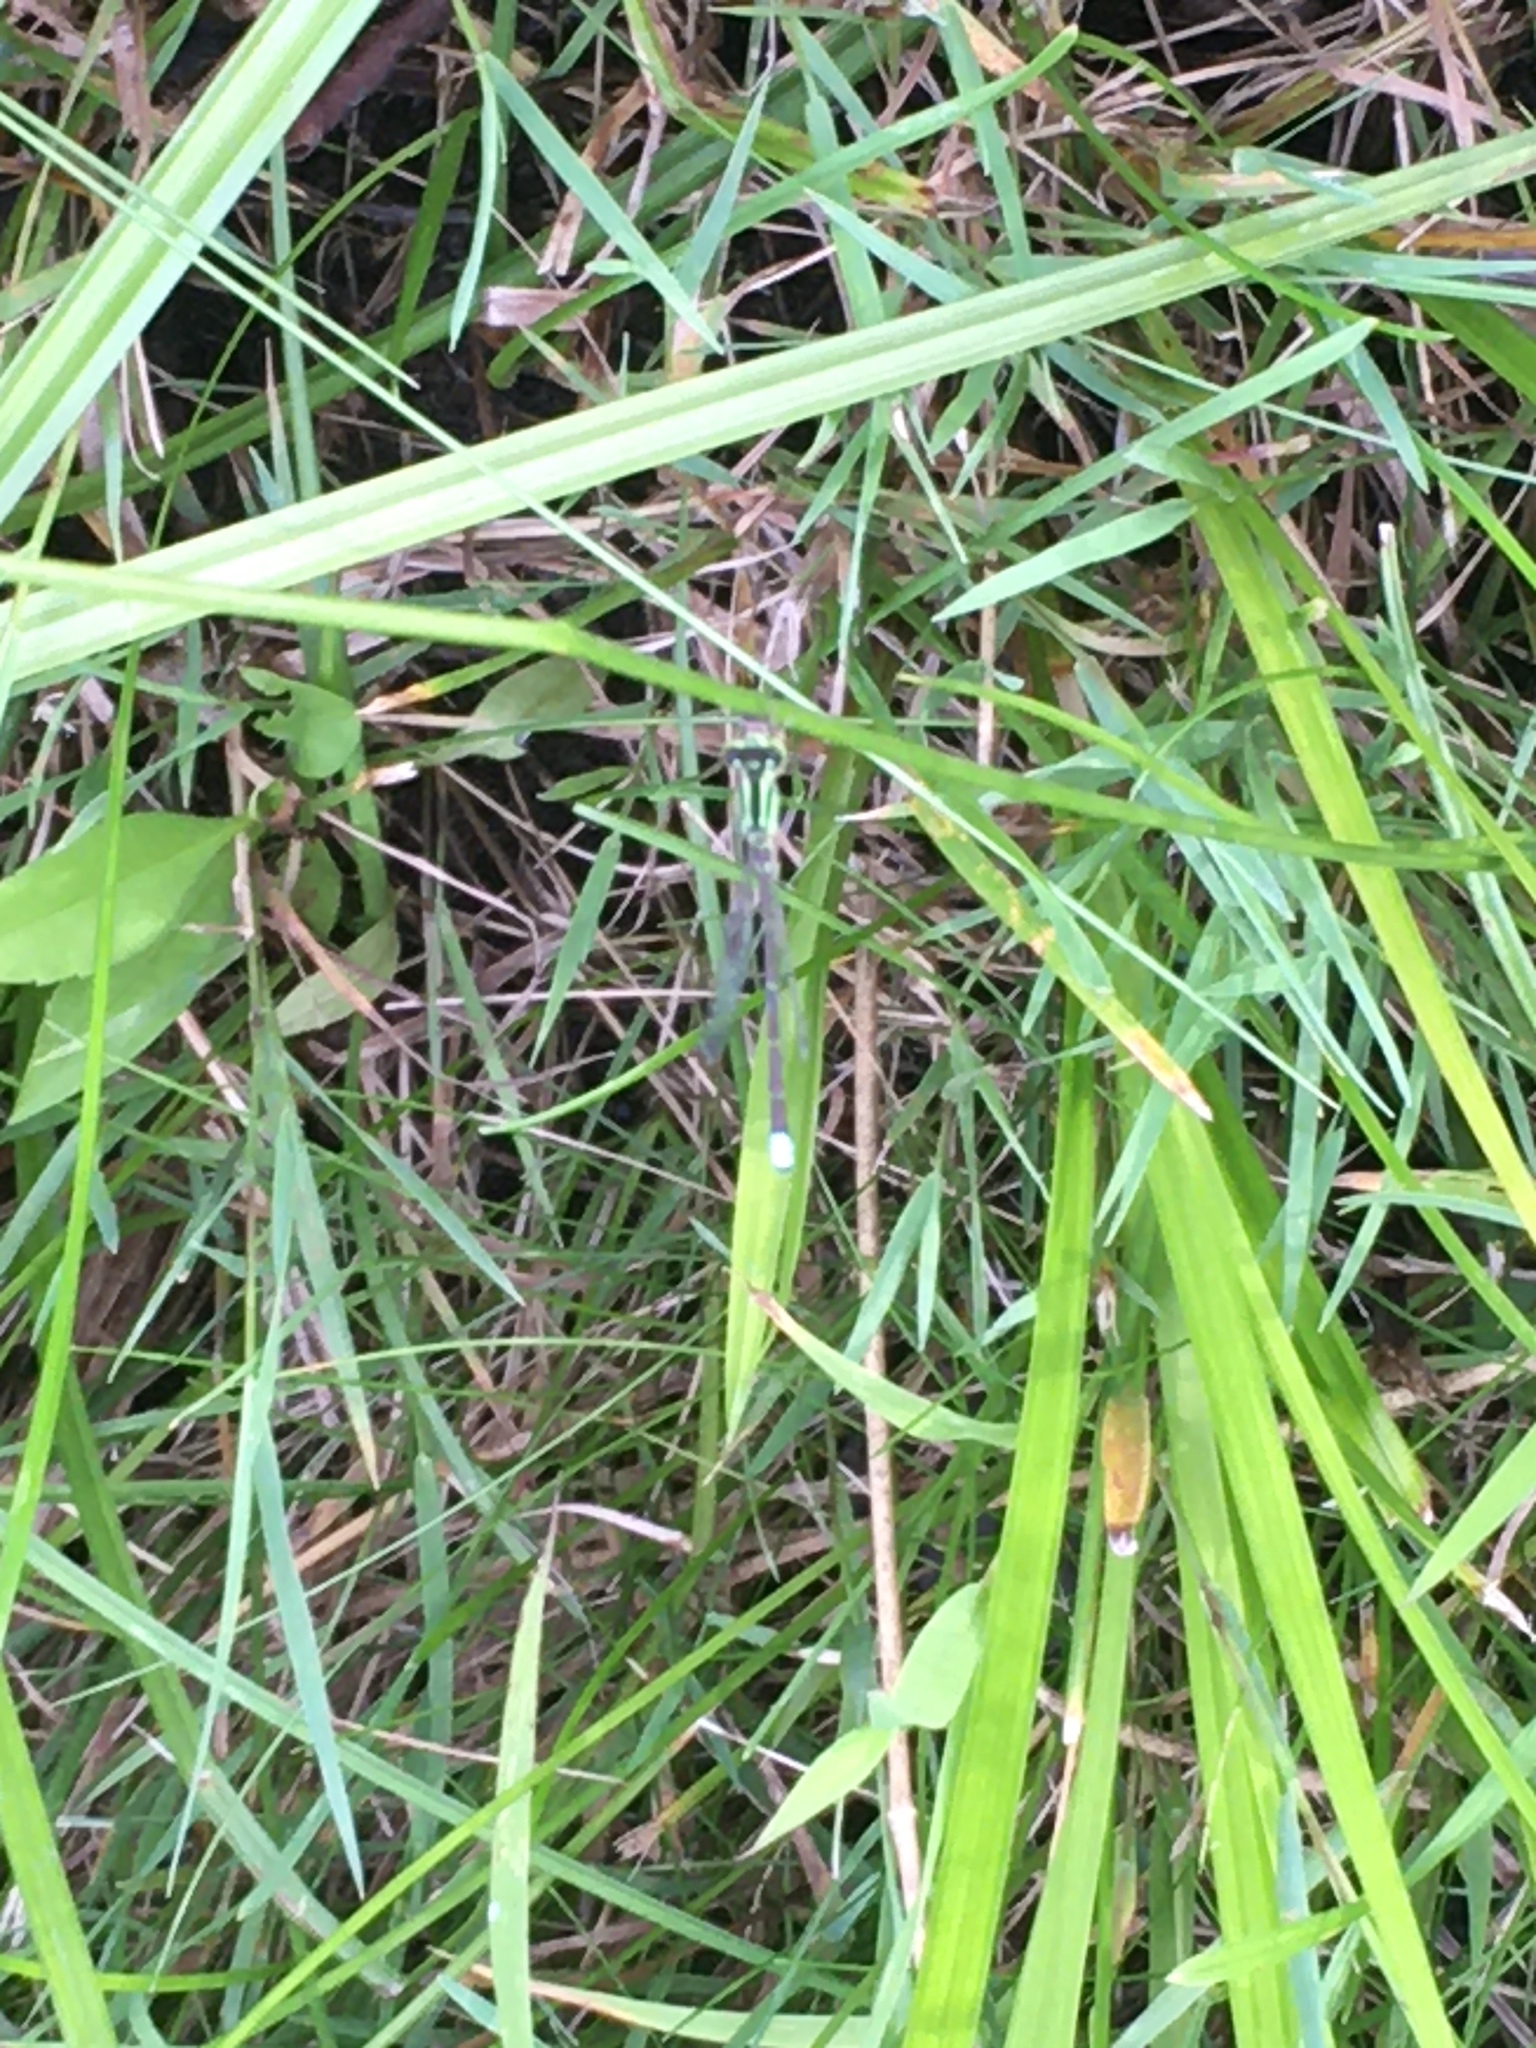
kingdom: Animalia
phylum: Arthropoda
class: Insecta
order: Odonata
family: Coenagrionidae
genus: Ischnura
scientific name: Ischnura verticalis
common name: Eastern forktail
